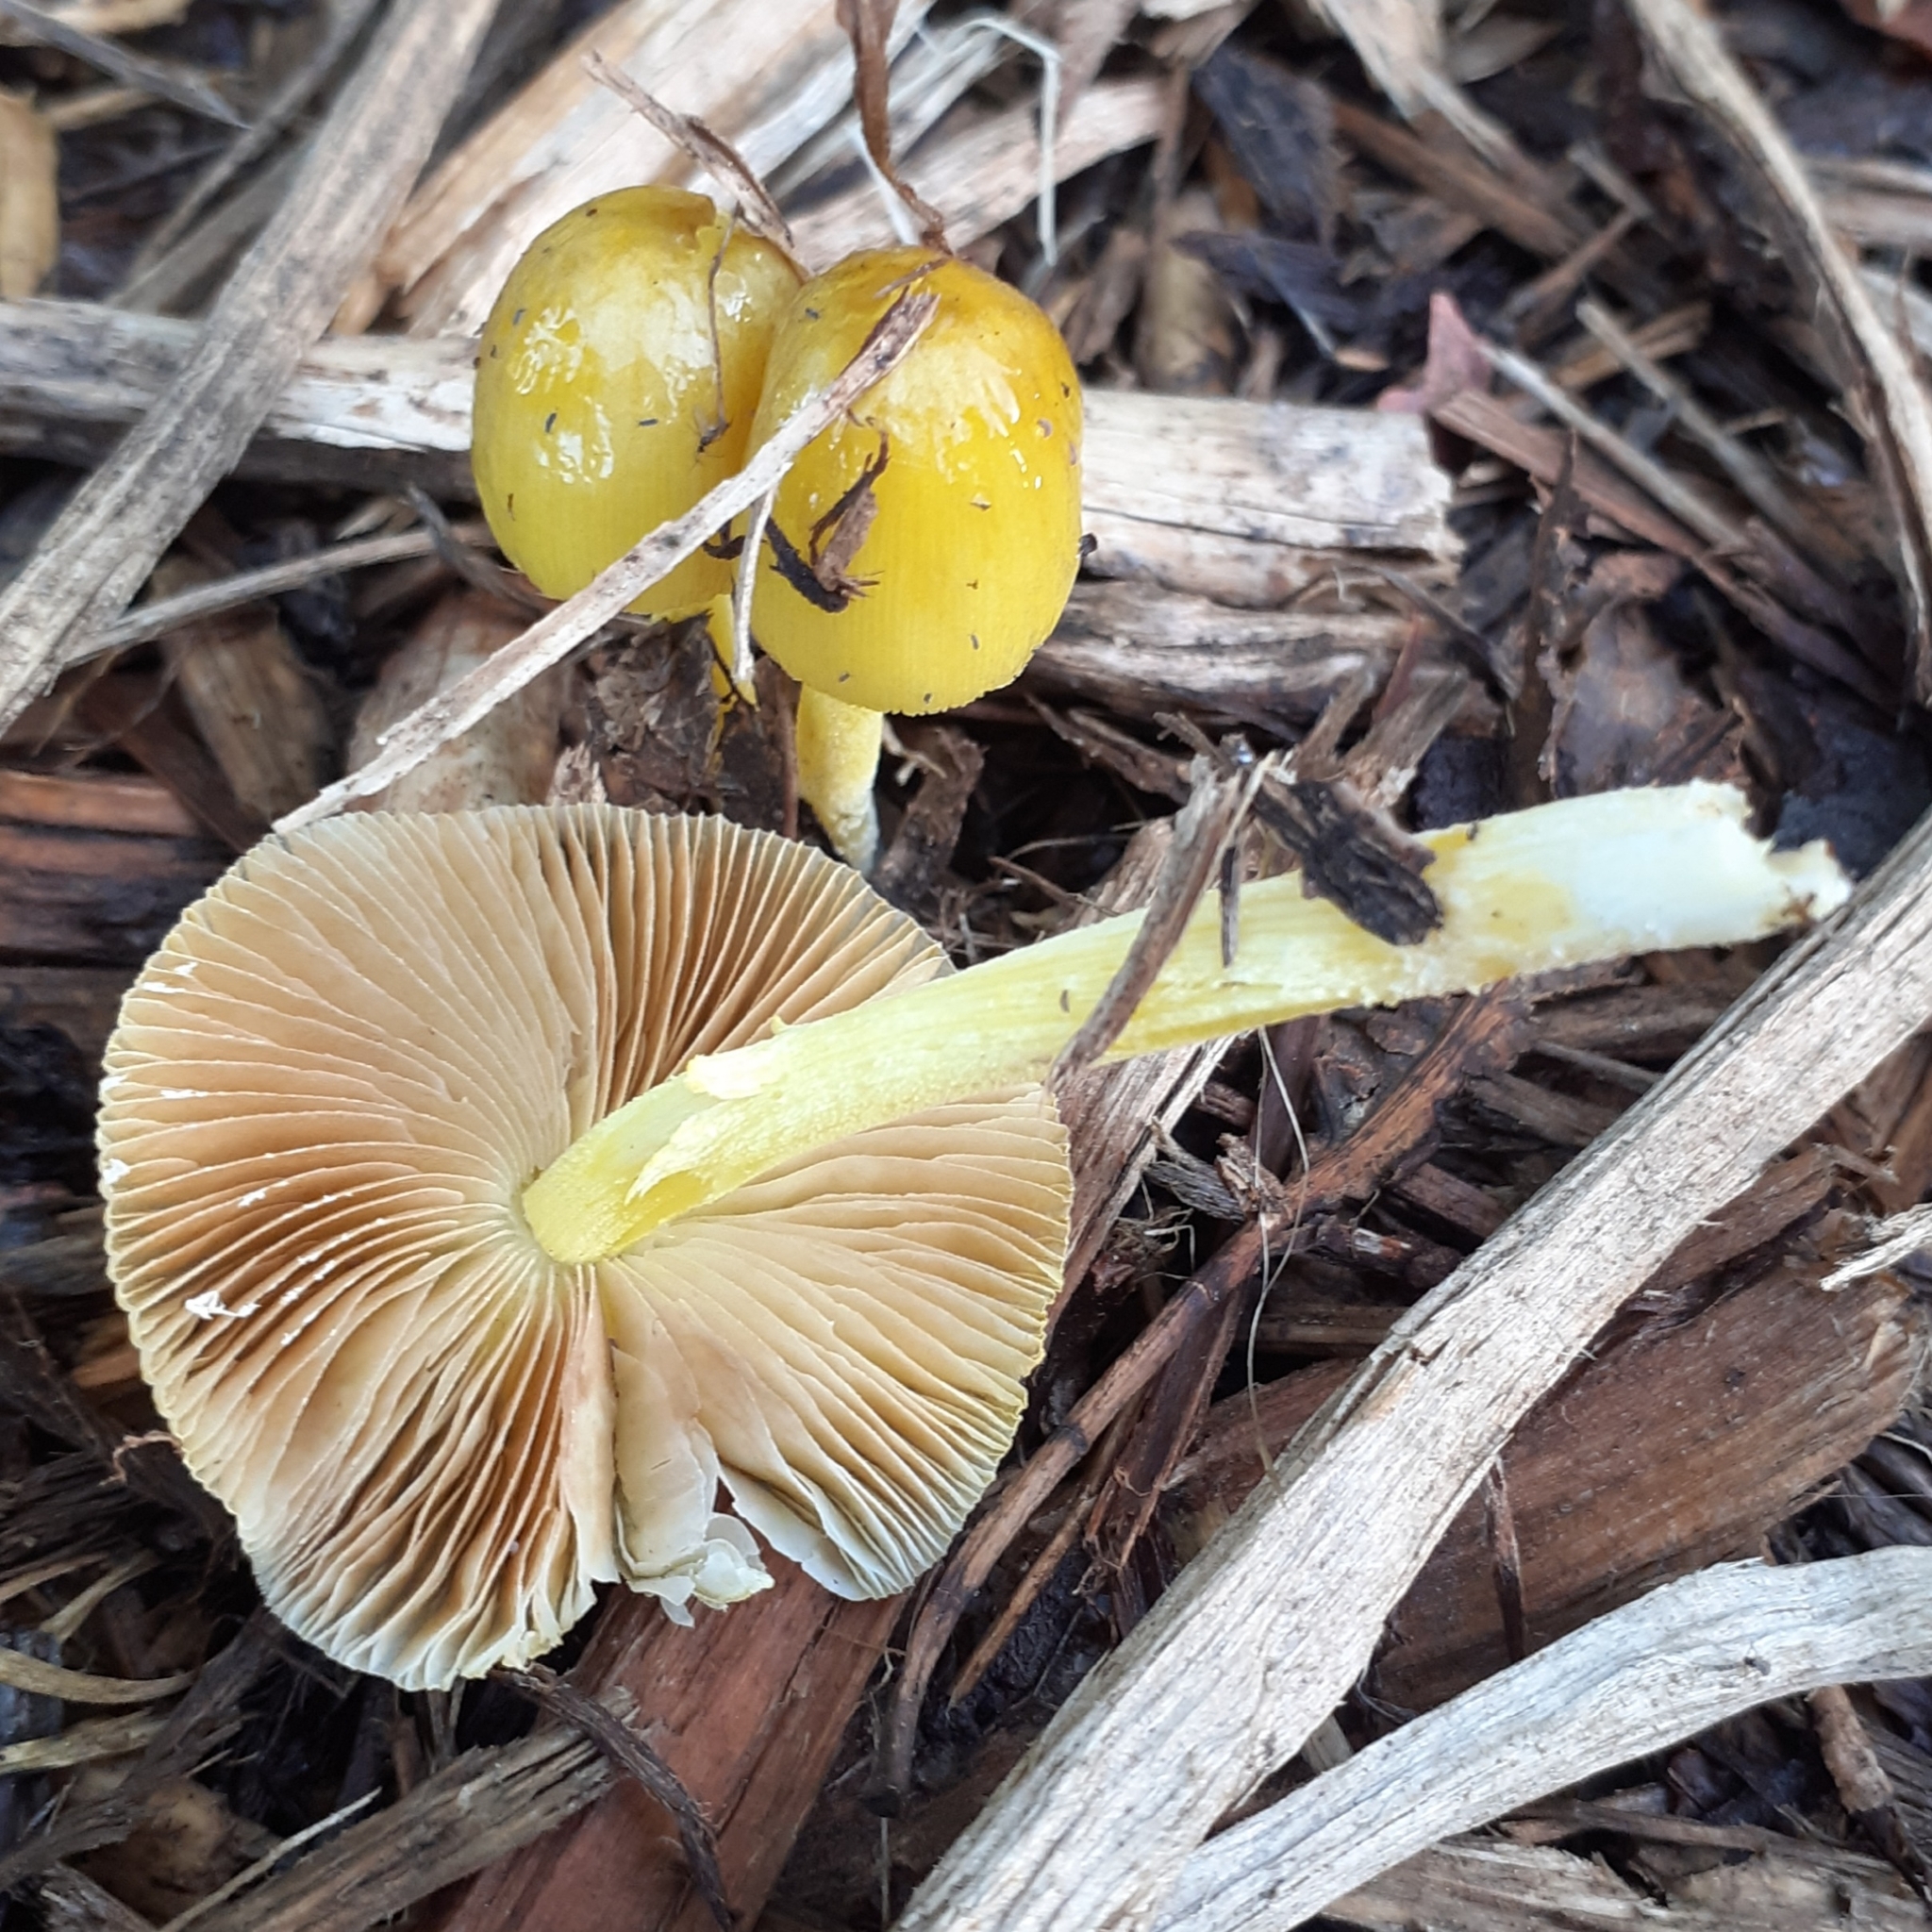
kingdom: Fungi
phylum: Basidiomycota
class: Agaricomycetes
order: Agaricales
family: Bolbitiaceae
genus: Bolbitius
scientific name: Bolbitius titubans
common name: Yellow fieldcap
